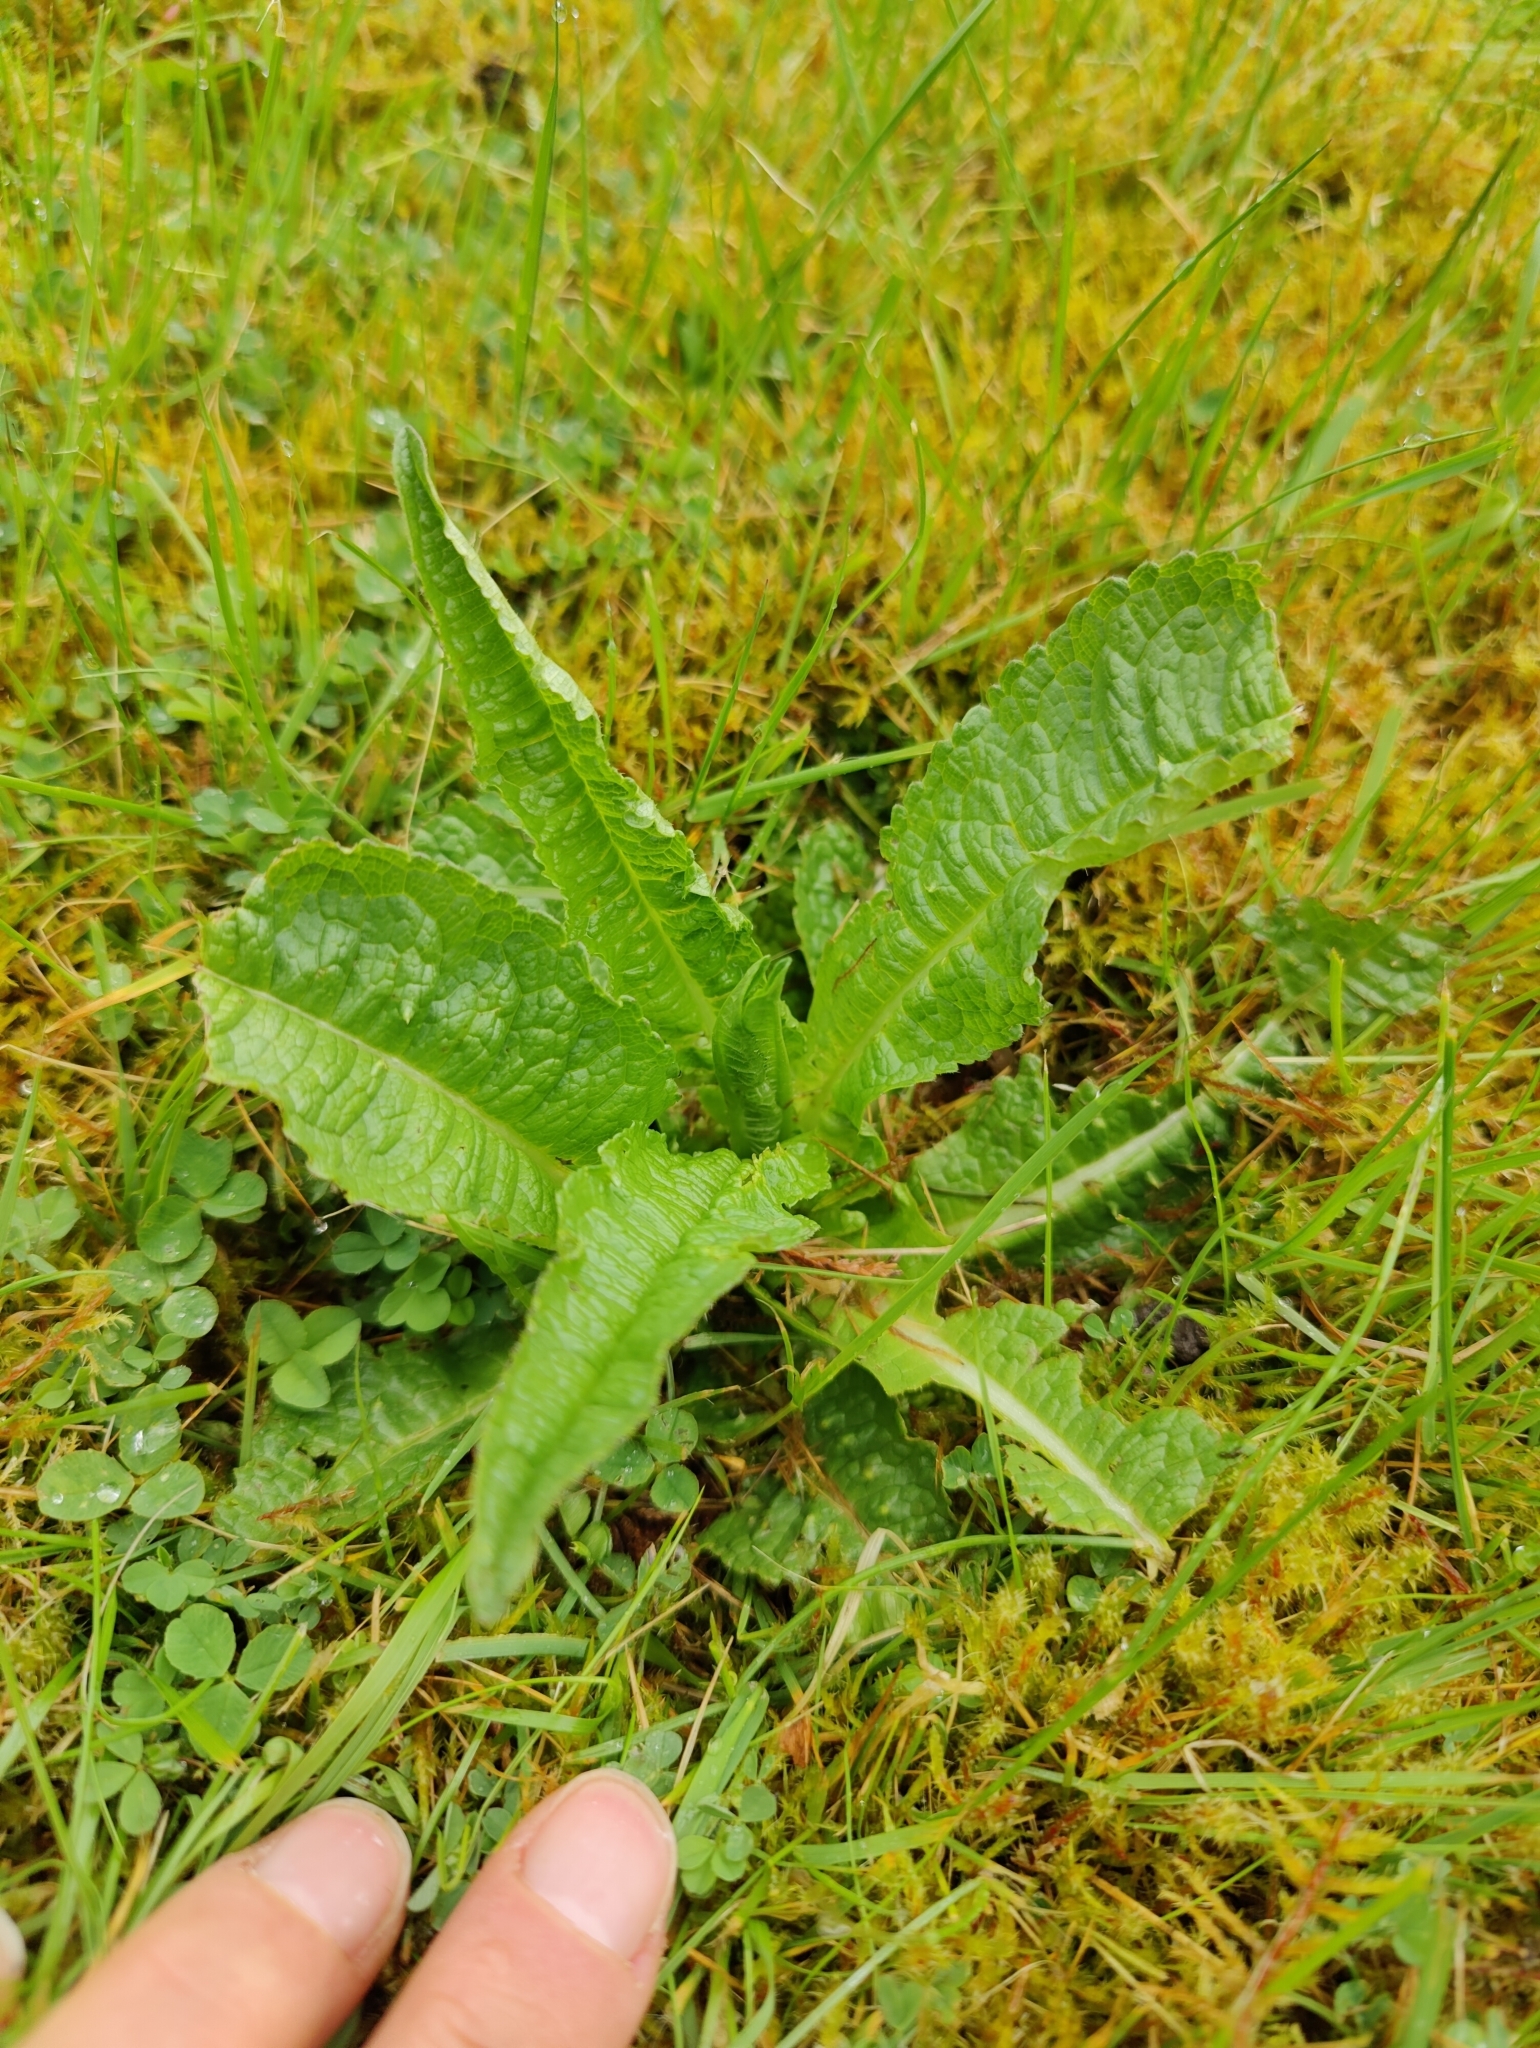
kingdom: Plantae
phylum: Tracheophyta
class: Magnoliopsida
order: Dipsacales
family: Caprifoliaceae
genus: Dipsacus
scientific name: Dipsacus fullonum
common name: Teasel
